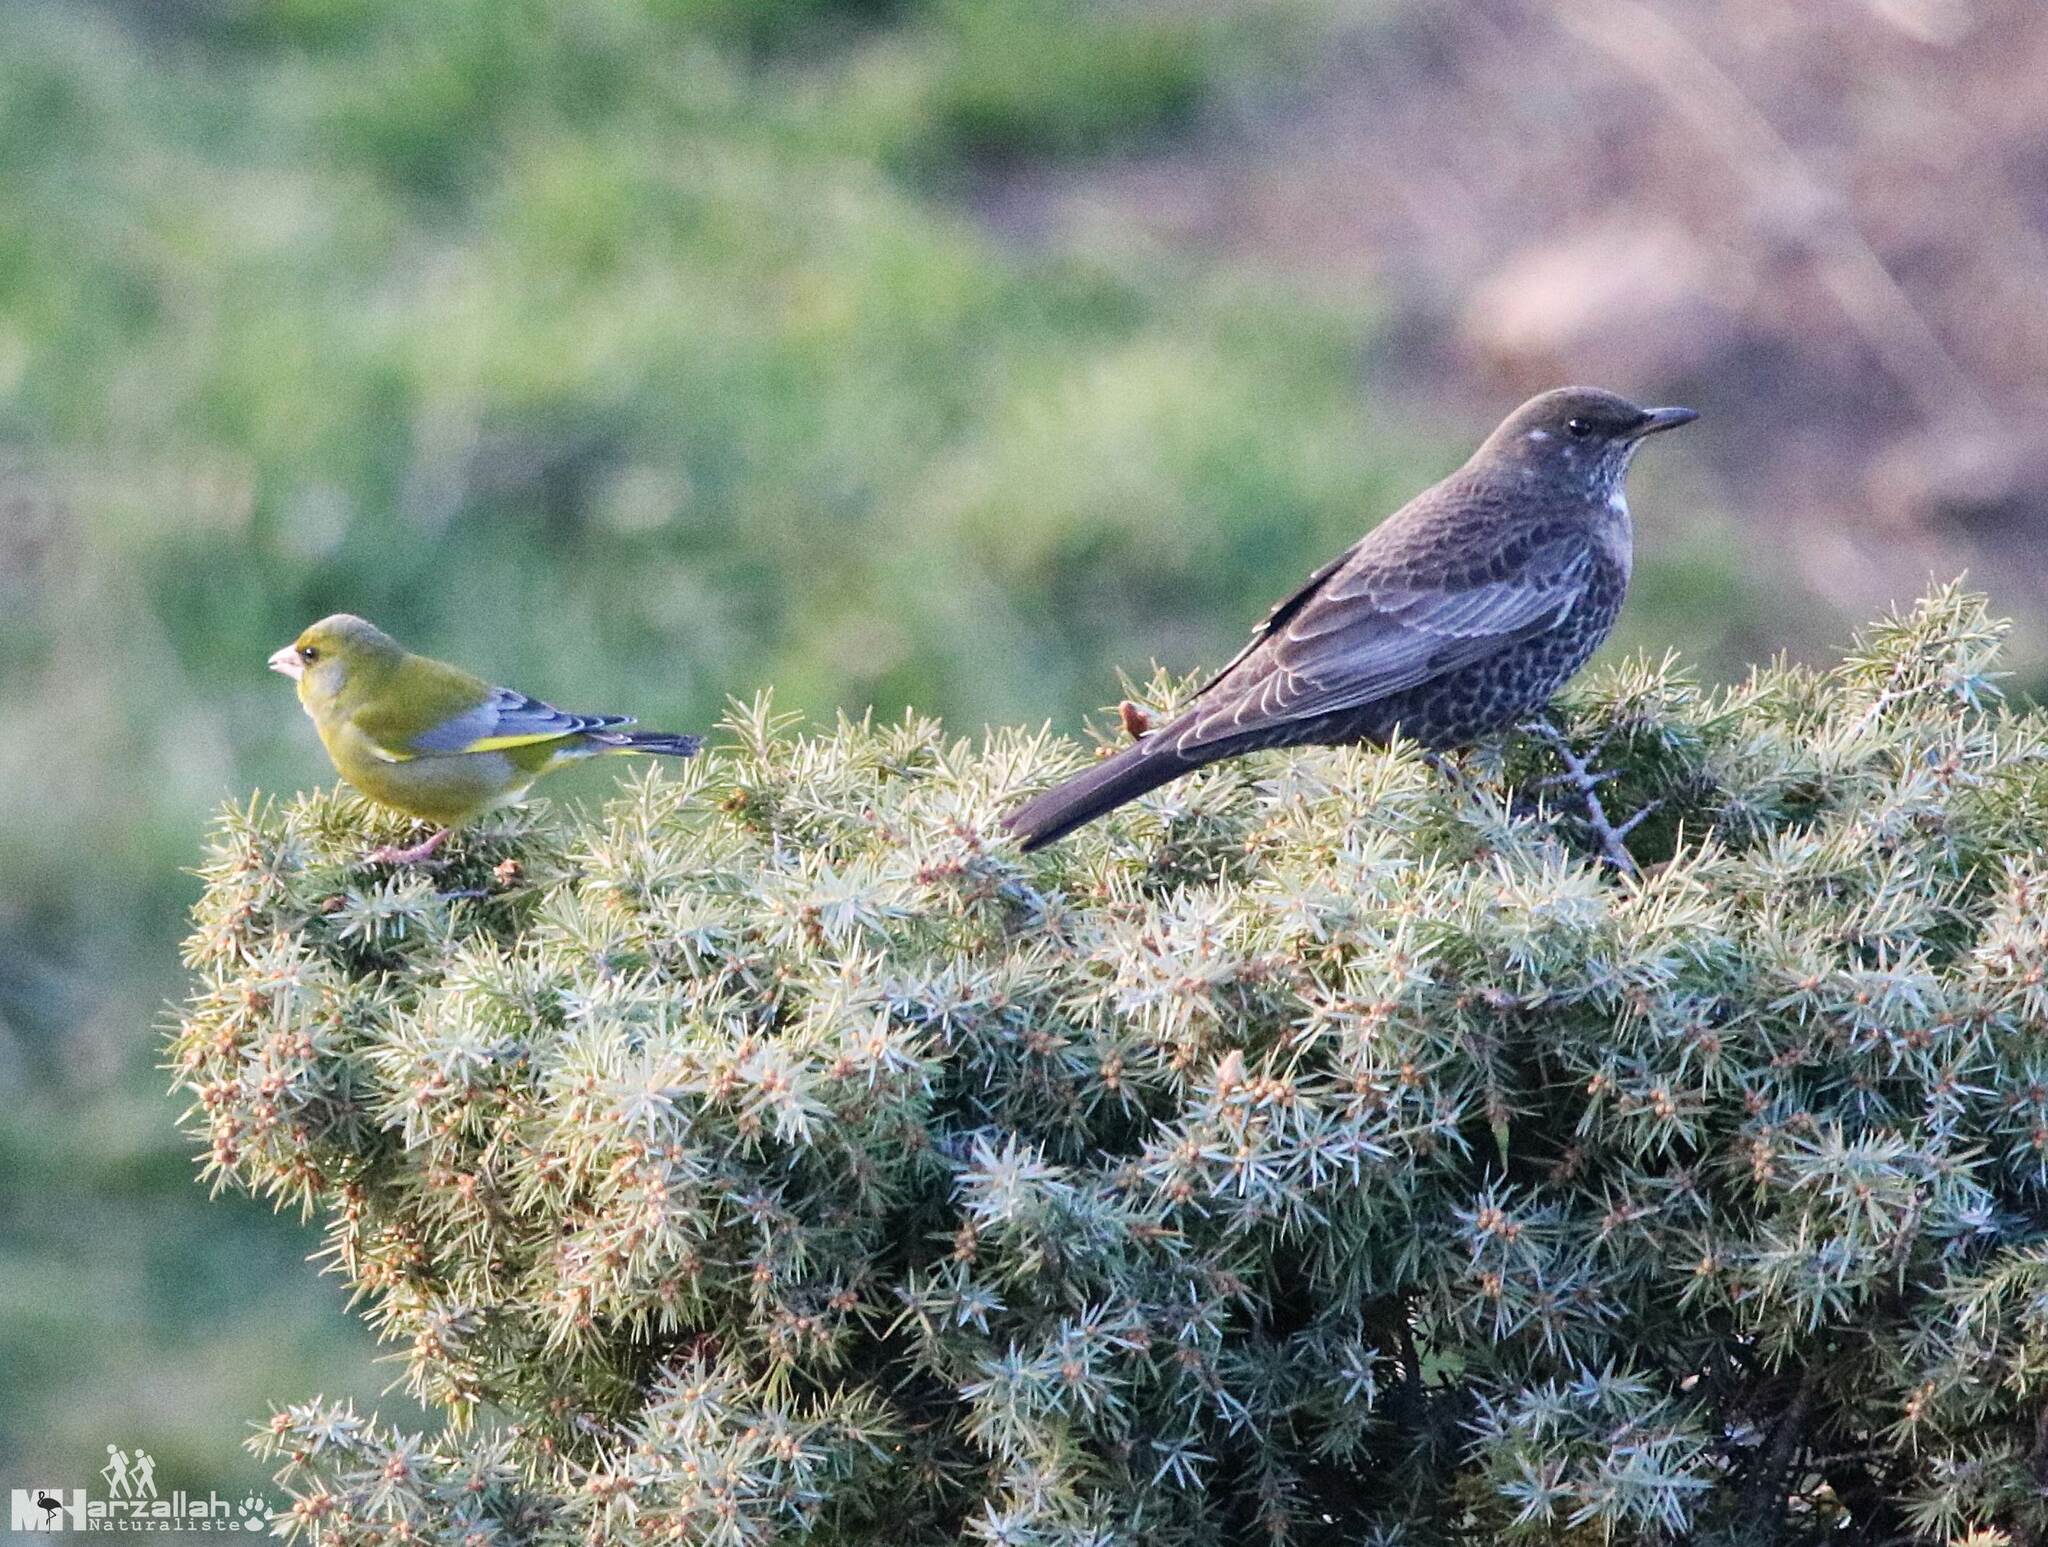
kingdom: Plantae
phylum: Tracheophyta
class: Liliopsida
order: Poales
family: Poaceae
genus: Chloris
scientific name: Chloris chloris
